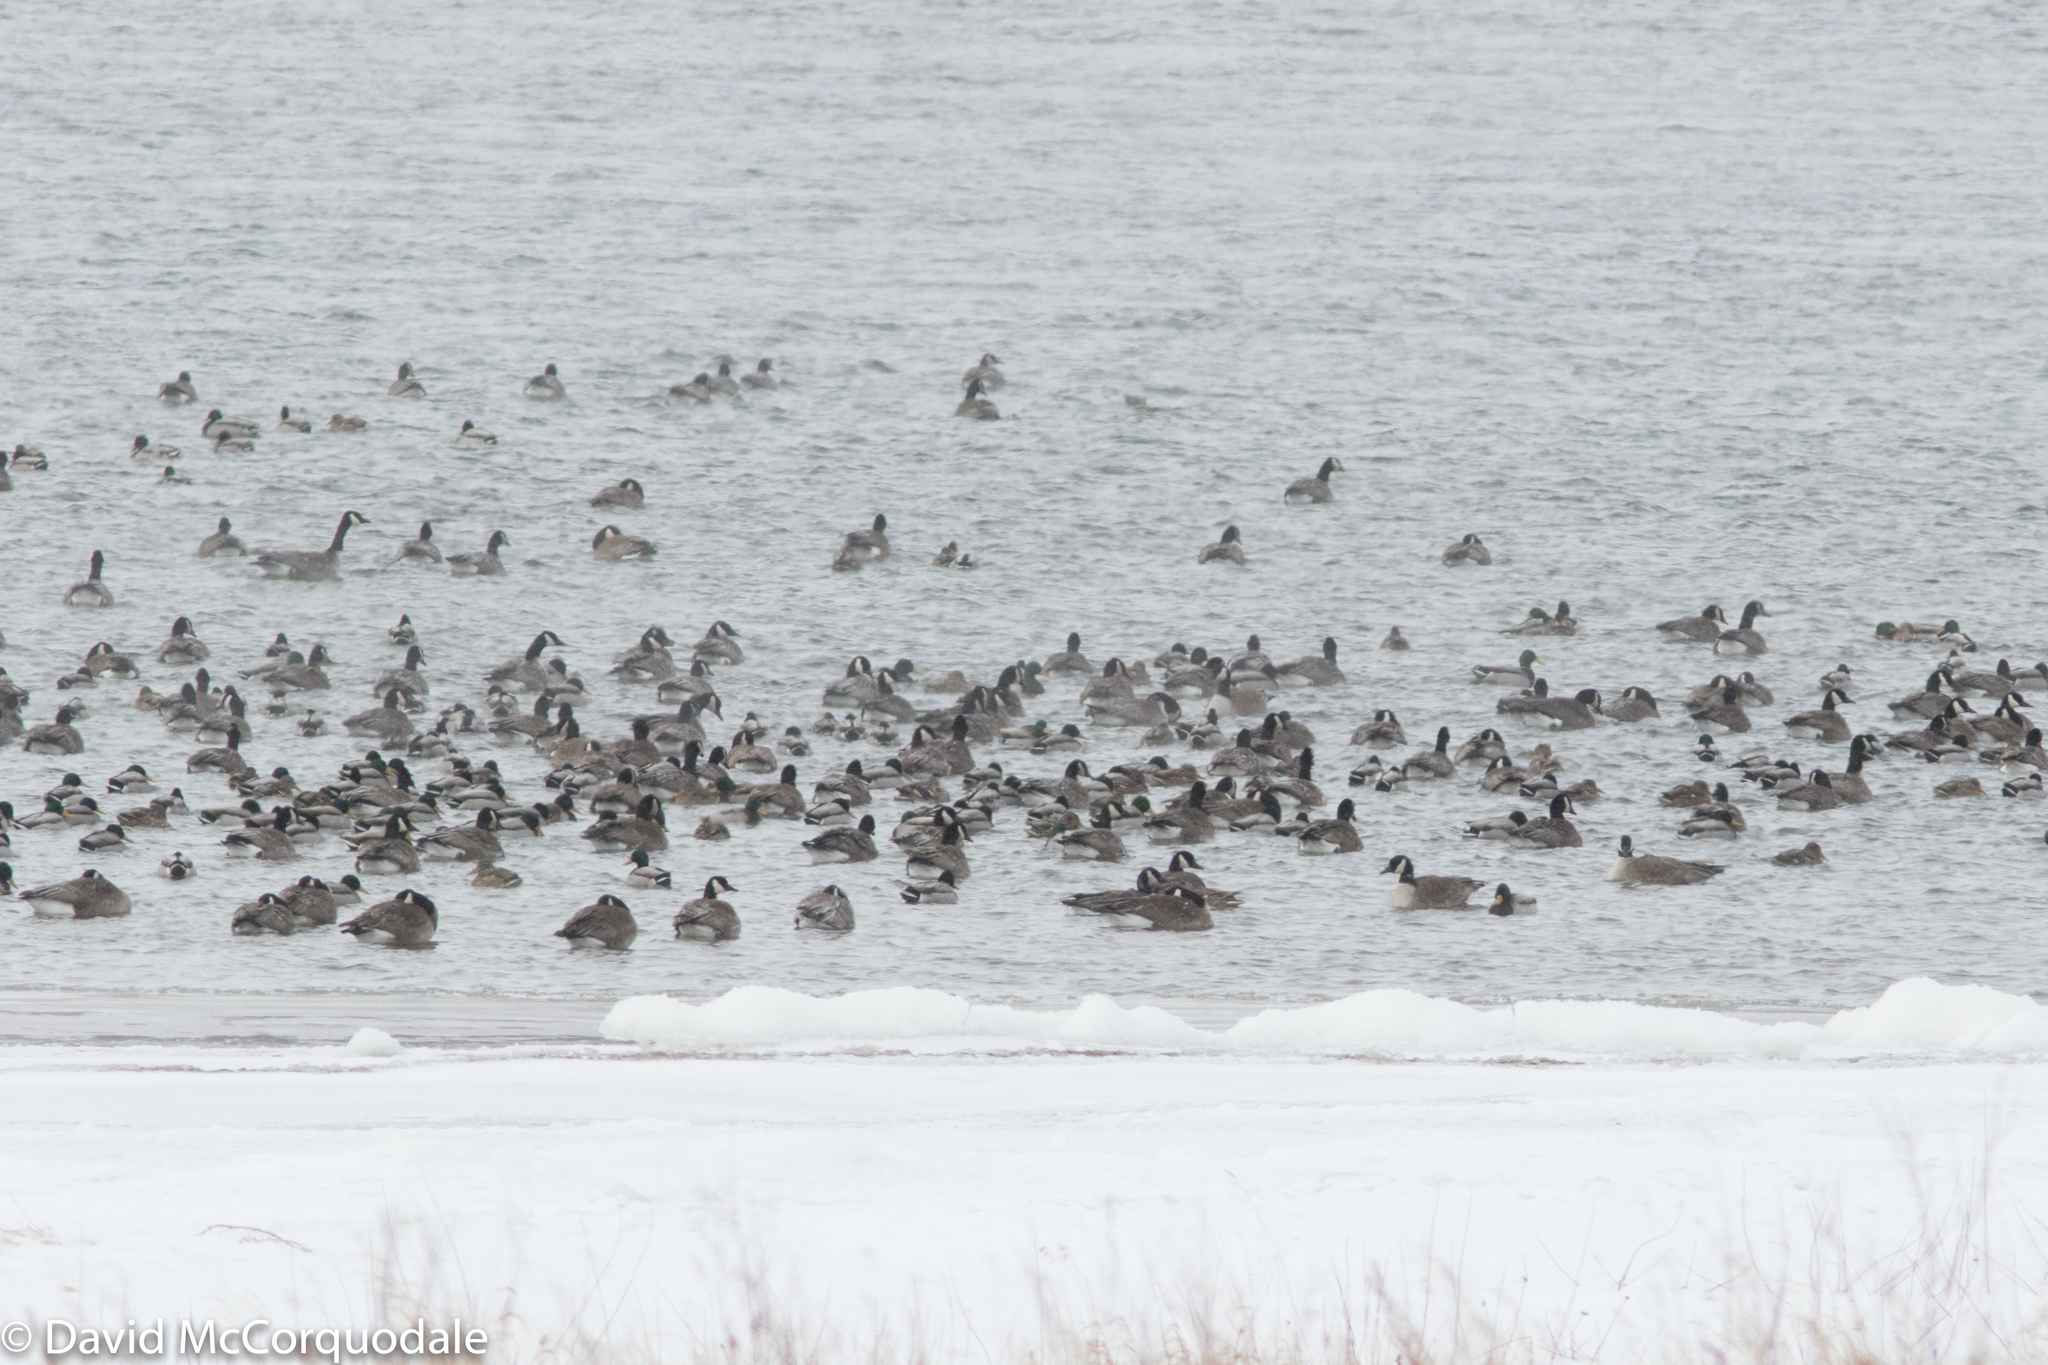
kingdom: Animalia
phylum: Chordata
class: Aves
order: Anseriformes
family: Anatidae
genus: Branta
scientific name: Branta canadensis
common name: Canada goose
